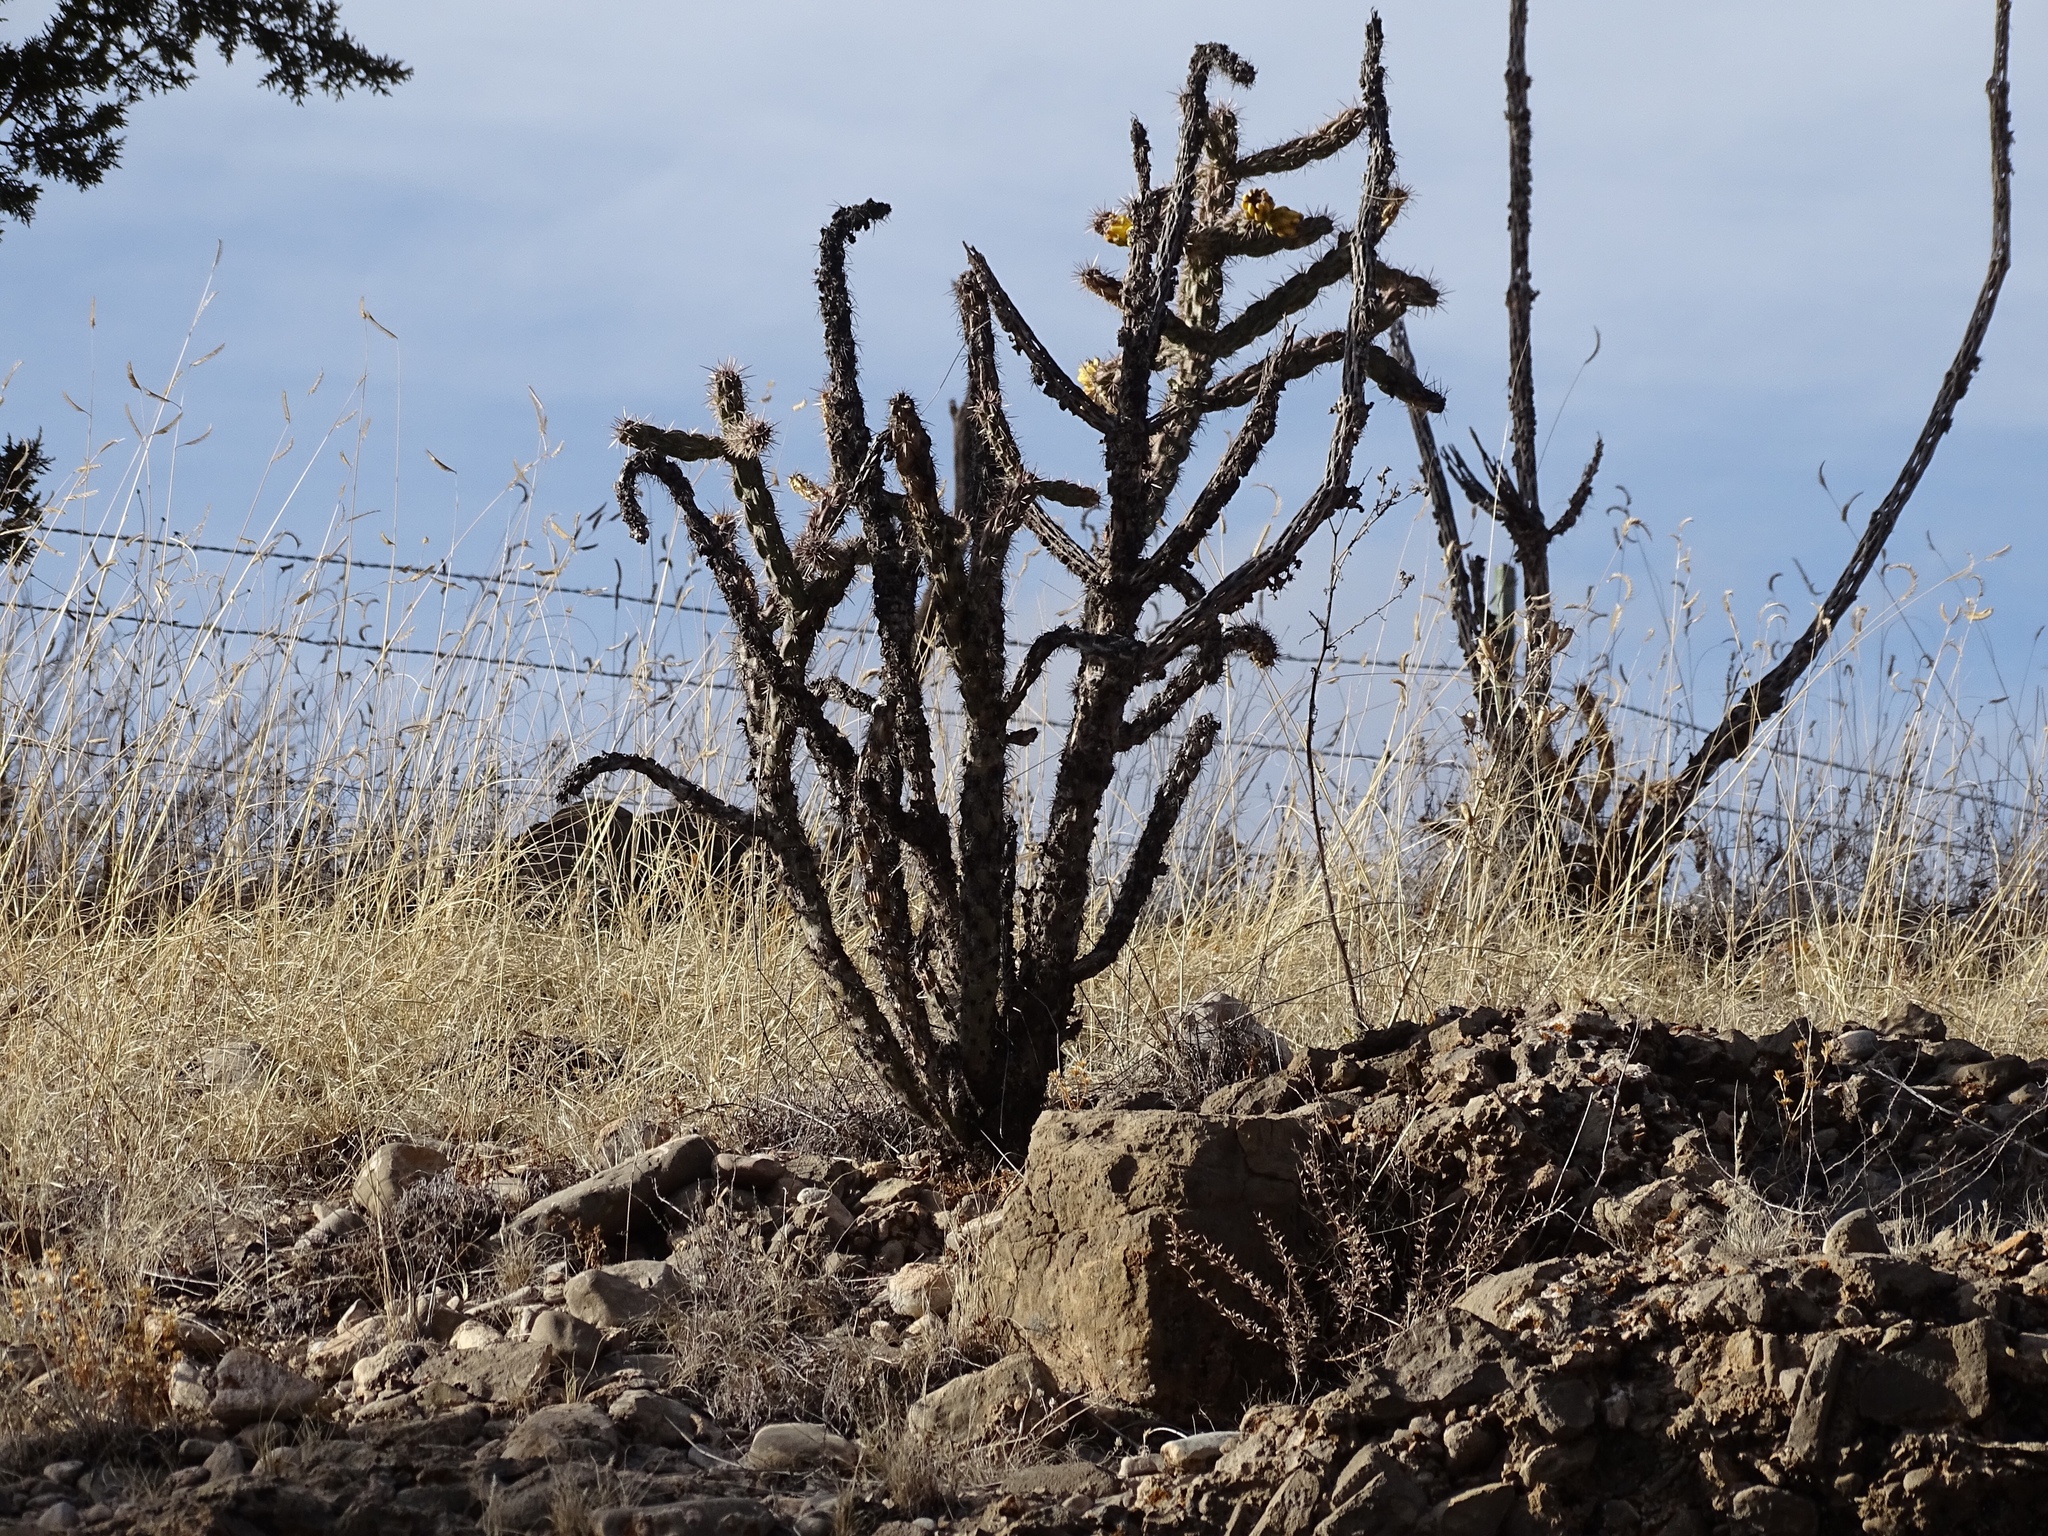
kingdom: Plantae
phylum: Tracheophyta
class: Magnoliopsida
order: Caryophyllales
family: Cactaceae
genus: Cylindropuntia
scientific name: Cylindropuntia imbricata
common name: Candelabrum cactus
